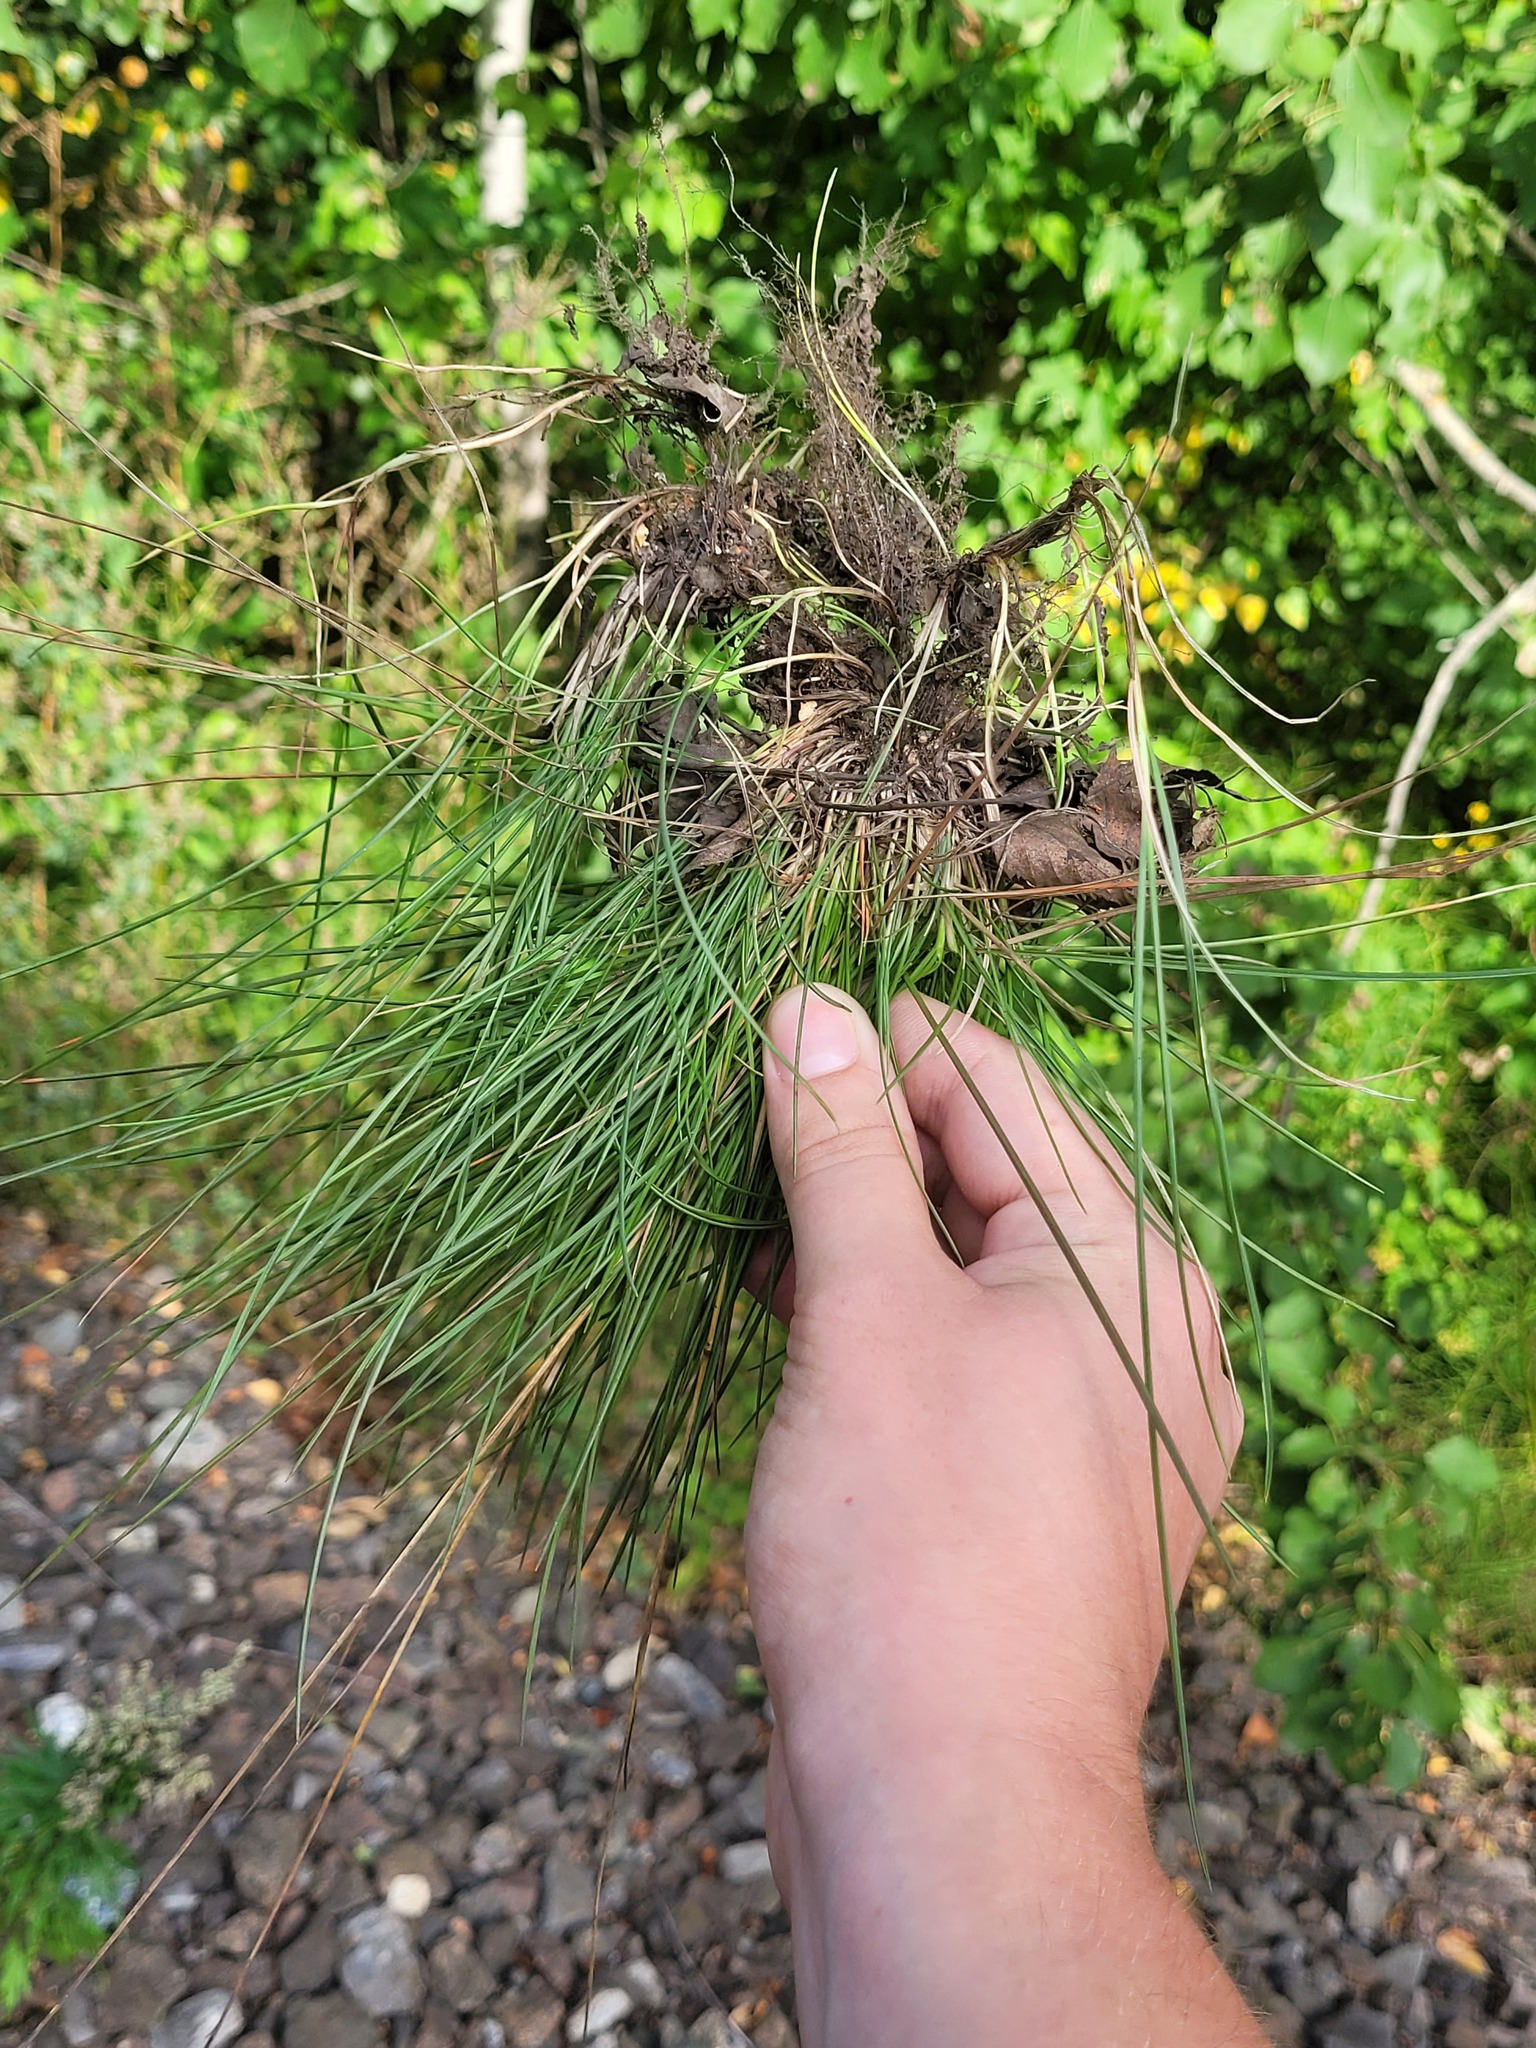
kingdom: Plantae
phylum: Tracheophyta
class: Liliopsida
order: Poales
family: Poaceae
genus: Festuca
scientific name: Festuca rubra
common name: Red fescue
